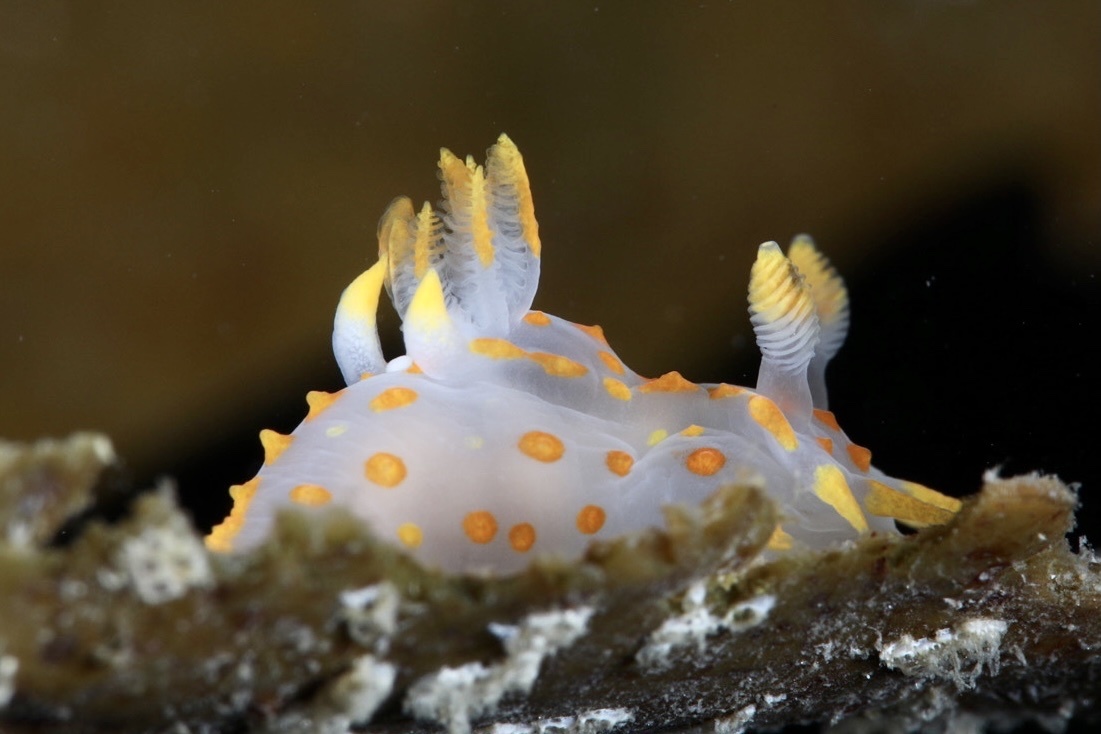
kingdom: Animalia
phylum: Mollusca
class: Gastropoda
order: Nudibranchia
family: Polyceridae
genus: Polycera
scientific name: Polycera quadrilineata
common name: Four-striped polycera
